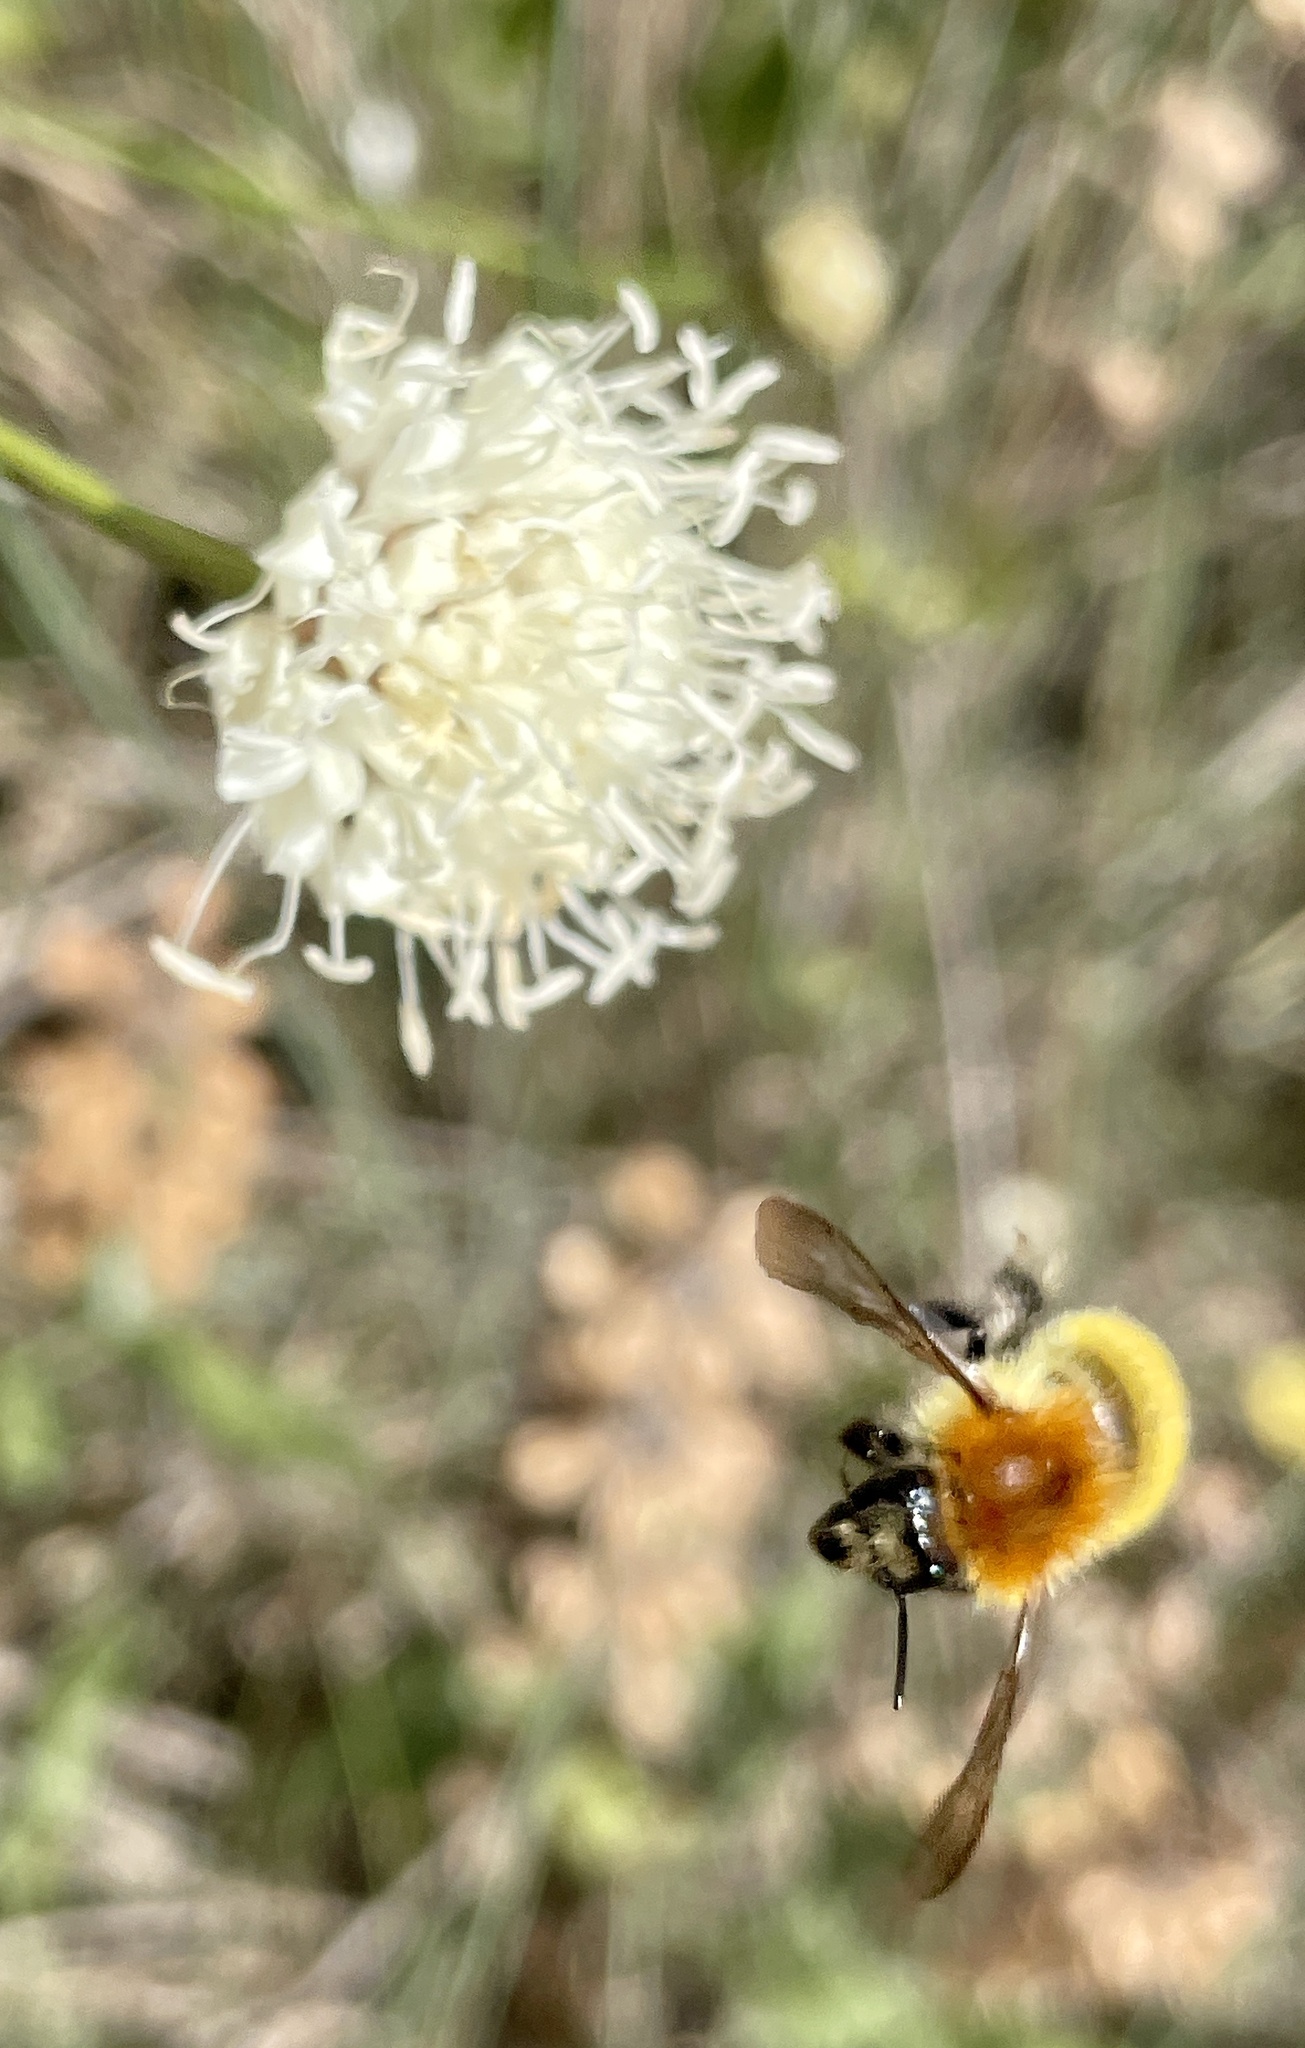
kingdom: Animalia
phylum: Arthropoda
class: Insecta
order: Hymenoptera
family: Apidae
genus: Bombus
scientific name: Bombus pascuorum
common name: Common carder bee
